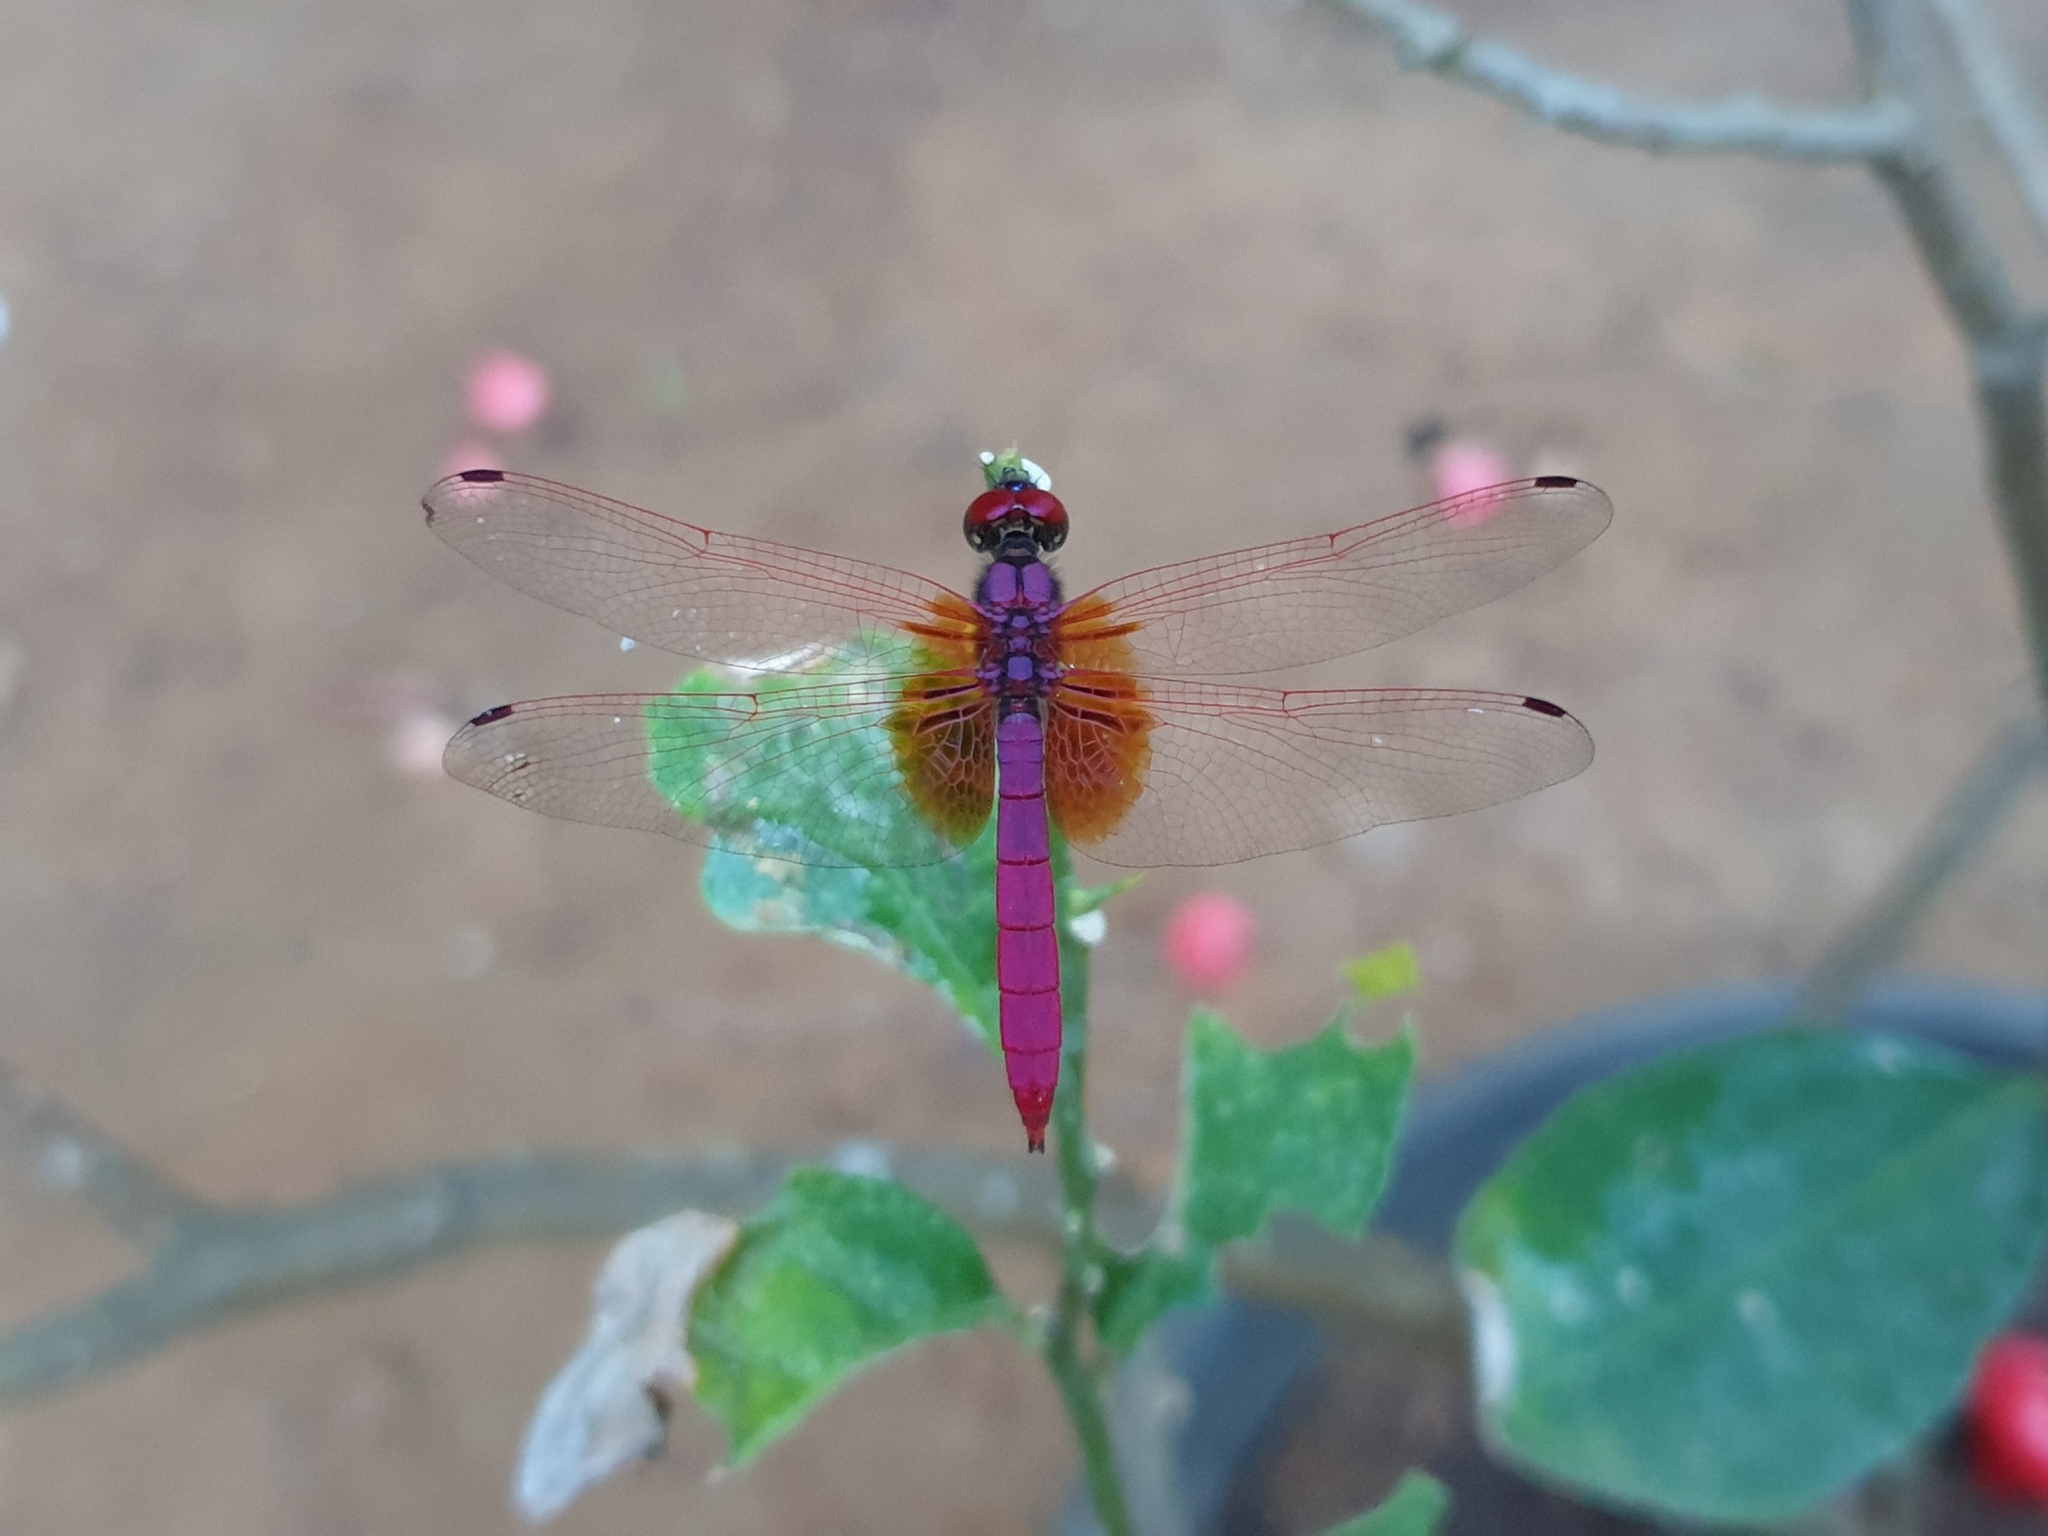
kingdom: Animalia
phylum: Arthropoda
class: Insecta
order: Odonata
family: Libellulidae
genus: Trithemis
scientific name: Trithemis aurora
